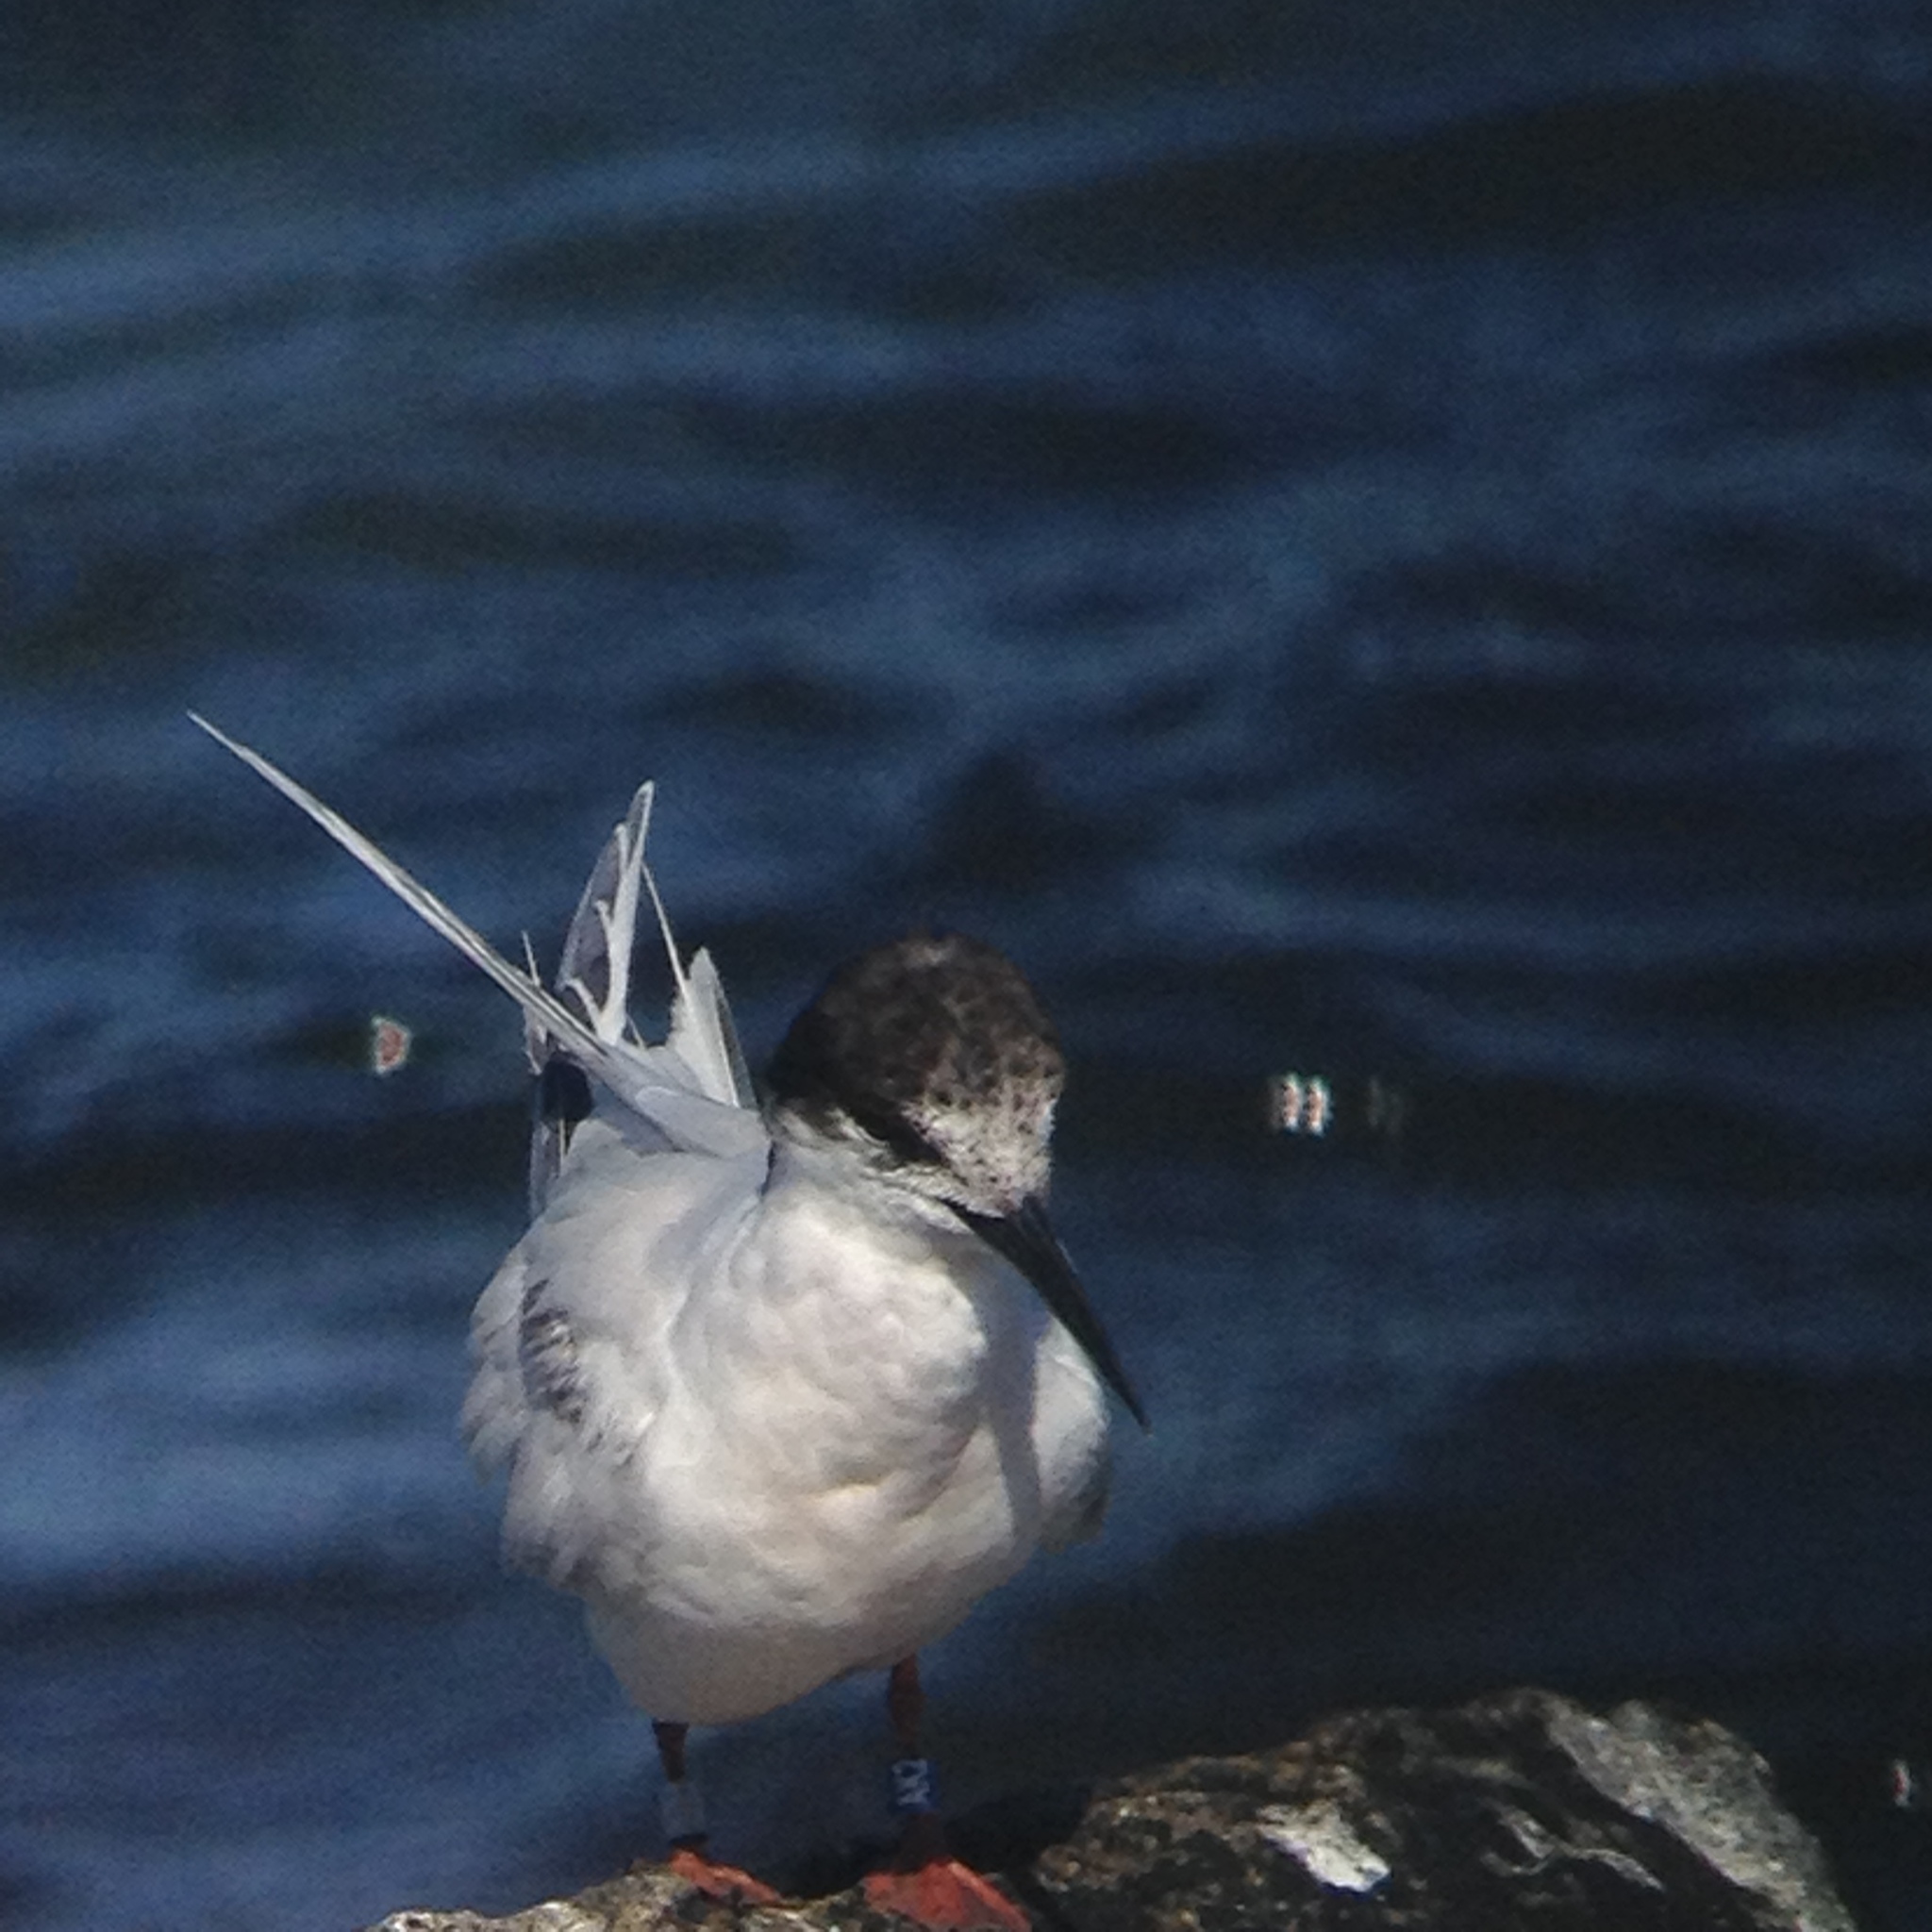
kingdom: Animalia
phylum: Chordata
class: Aves
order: Charadriiformes
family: Laridae
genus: Sterna
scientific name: Sterna dougallii
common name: Roseate tern
